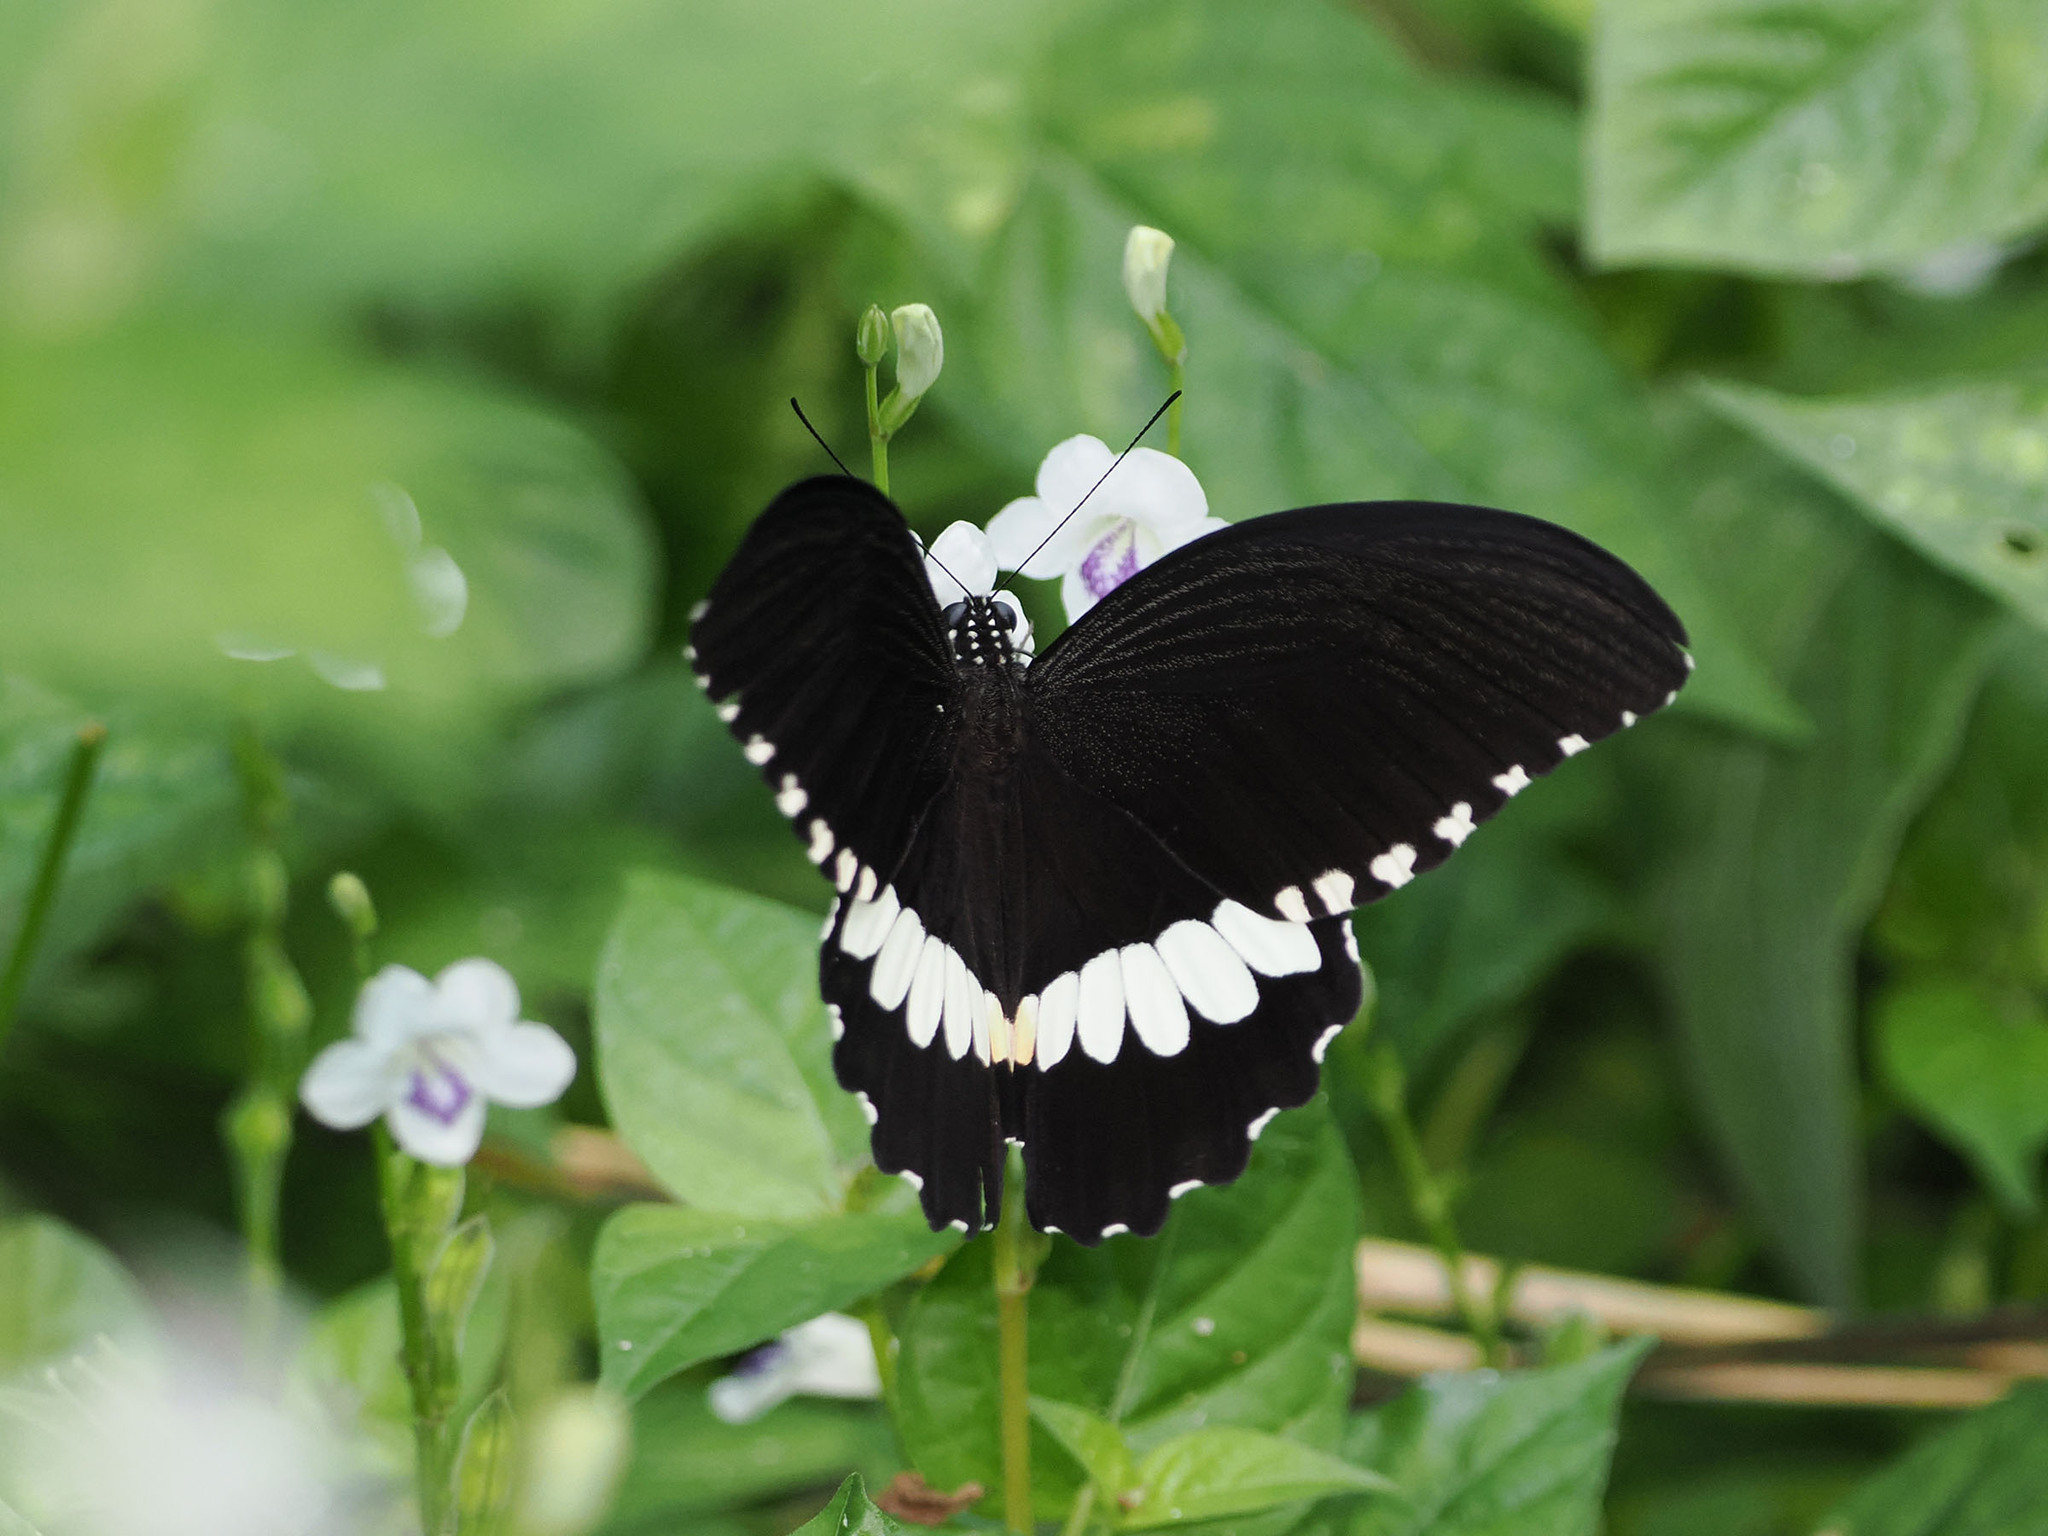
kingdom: Animalia
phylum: Arthropoda
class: Insecta
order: Lepidoptera
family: Papilionidae
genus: Papilio
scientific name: Papilio alphenor
